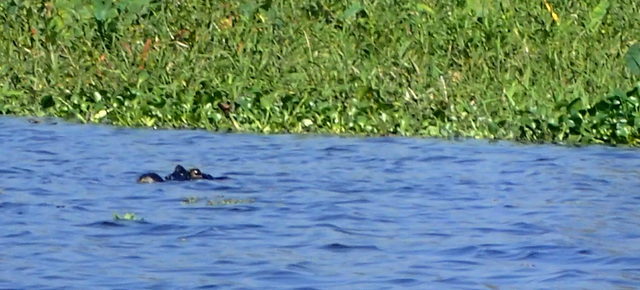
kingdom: Animalia
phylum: Chordata
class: Crocodylia
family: Alligatoridae
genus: Alligator
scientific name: Alligator mississippiensis
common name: American alligator
